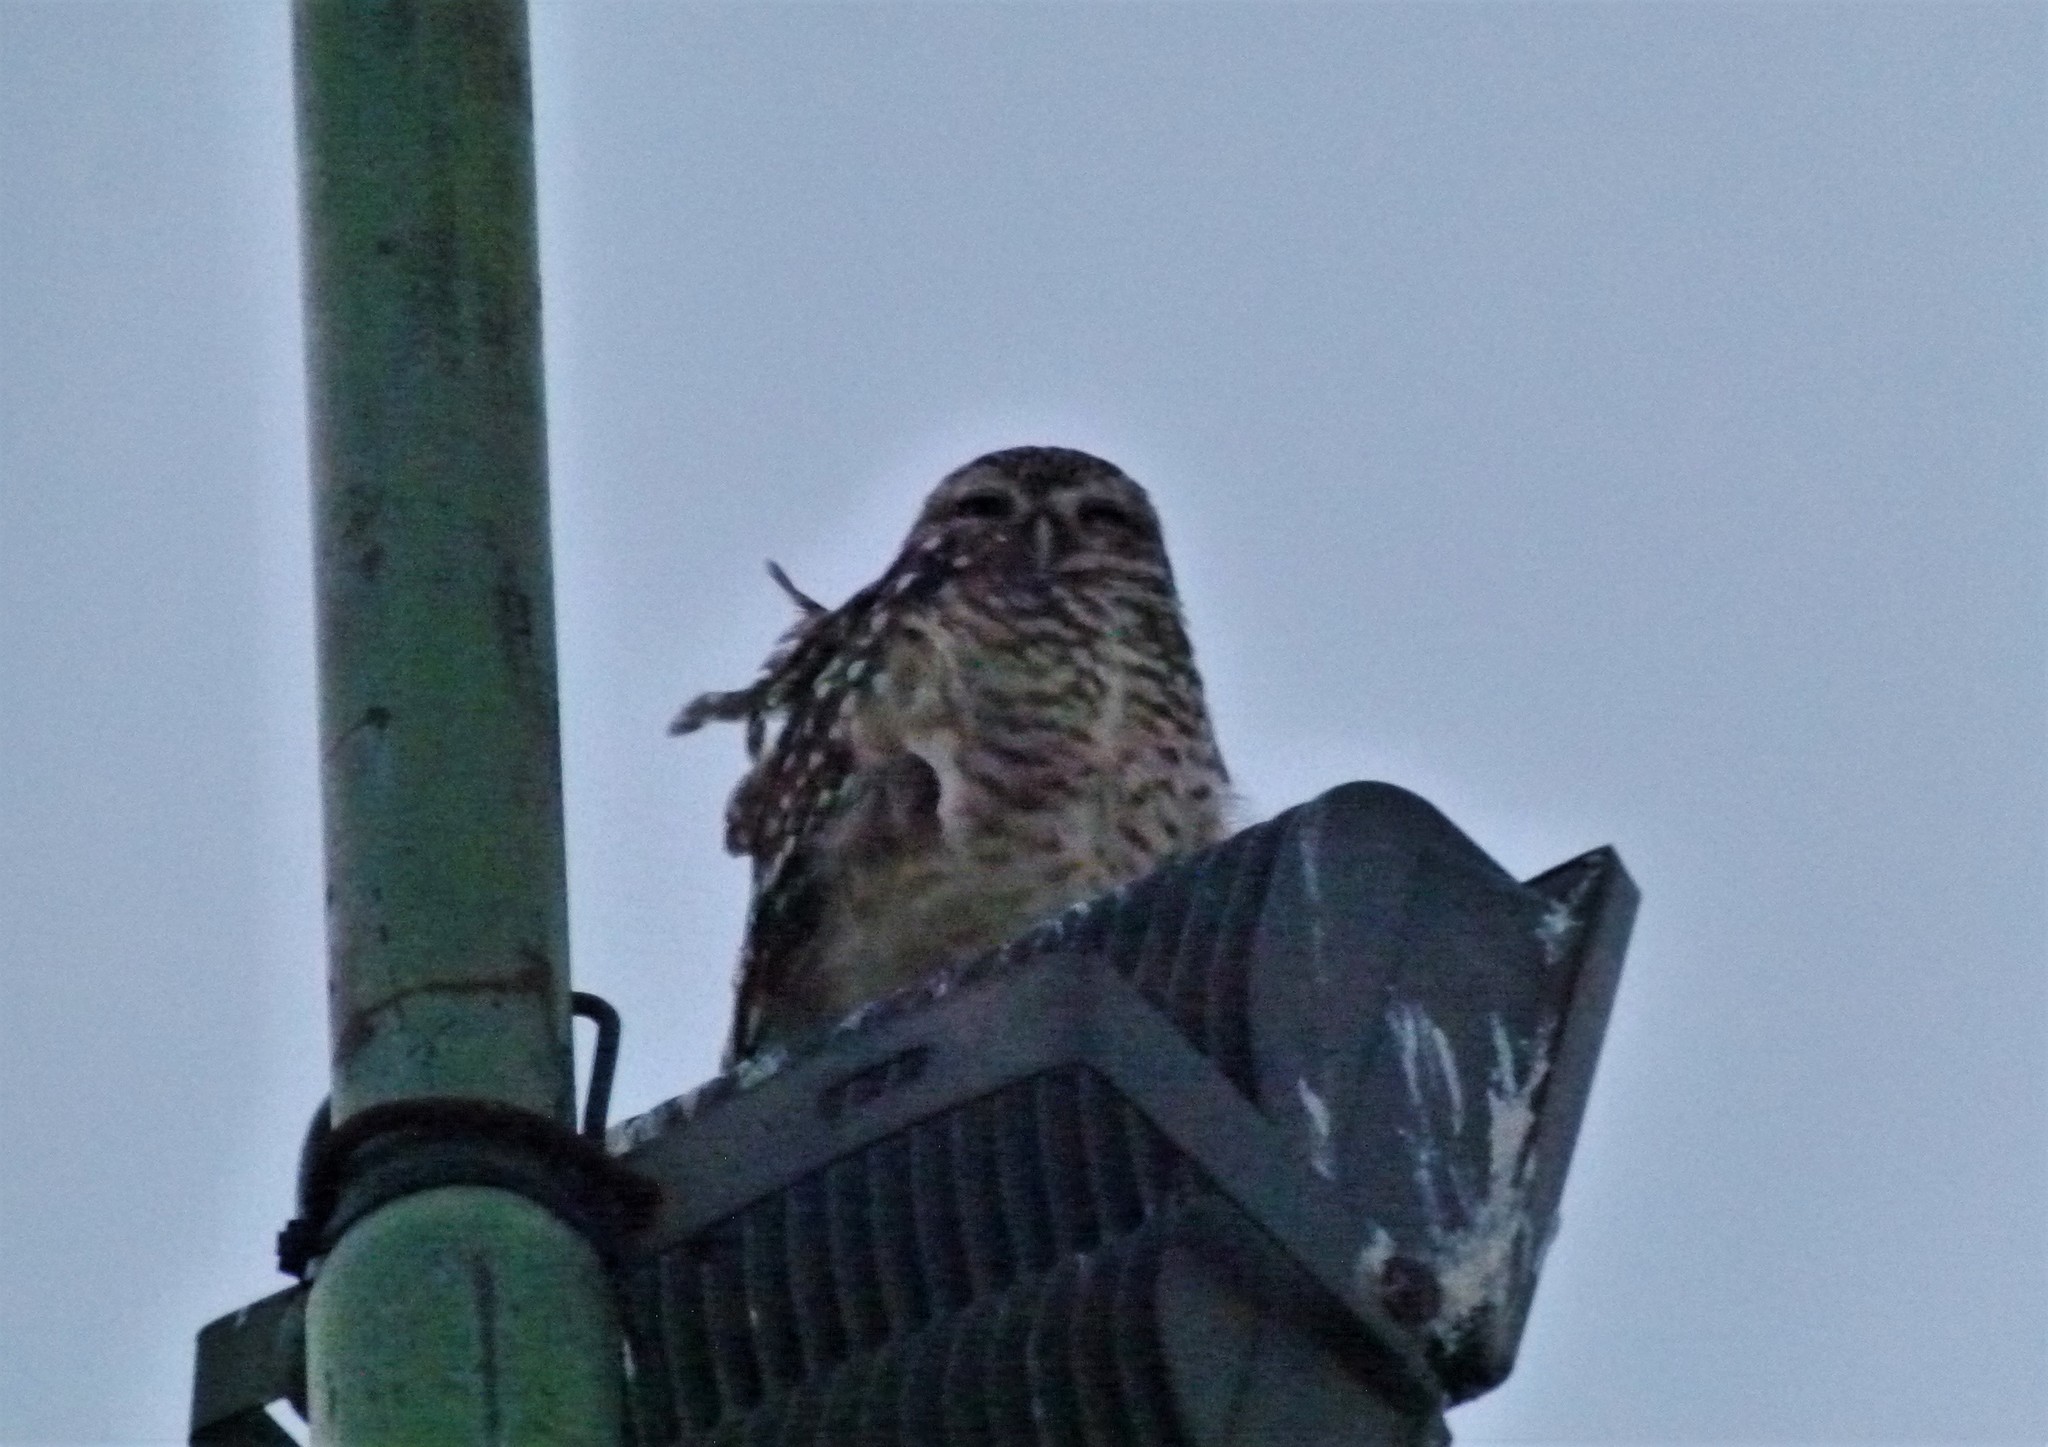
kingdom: Animalia
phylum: Chordata
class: Aves
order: Strigiformes
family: Strigidae
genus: Athene
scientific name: Athene cunicularia
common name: Burrowing owl
